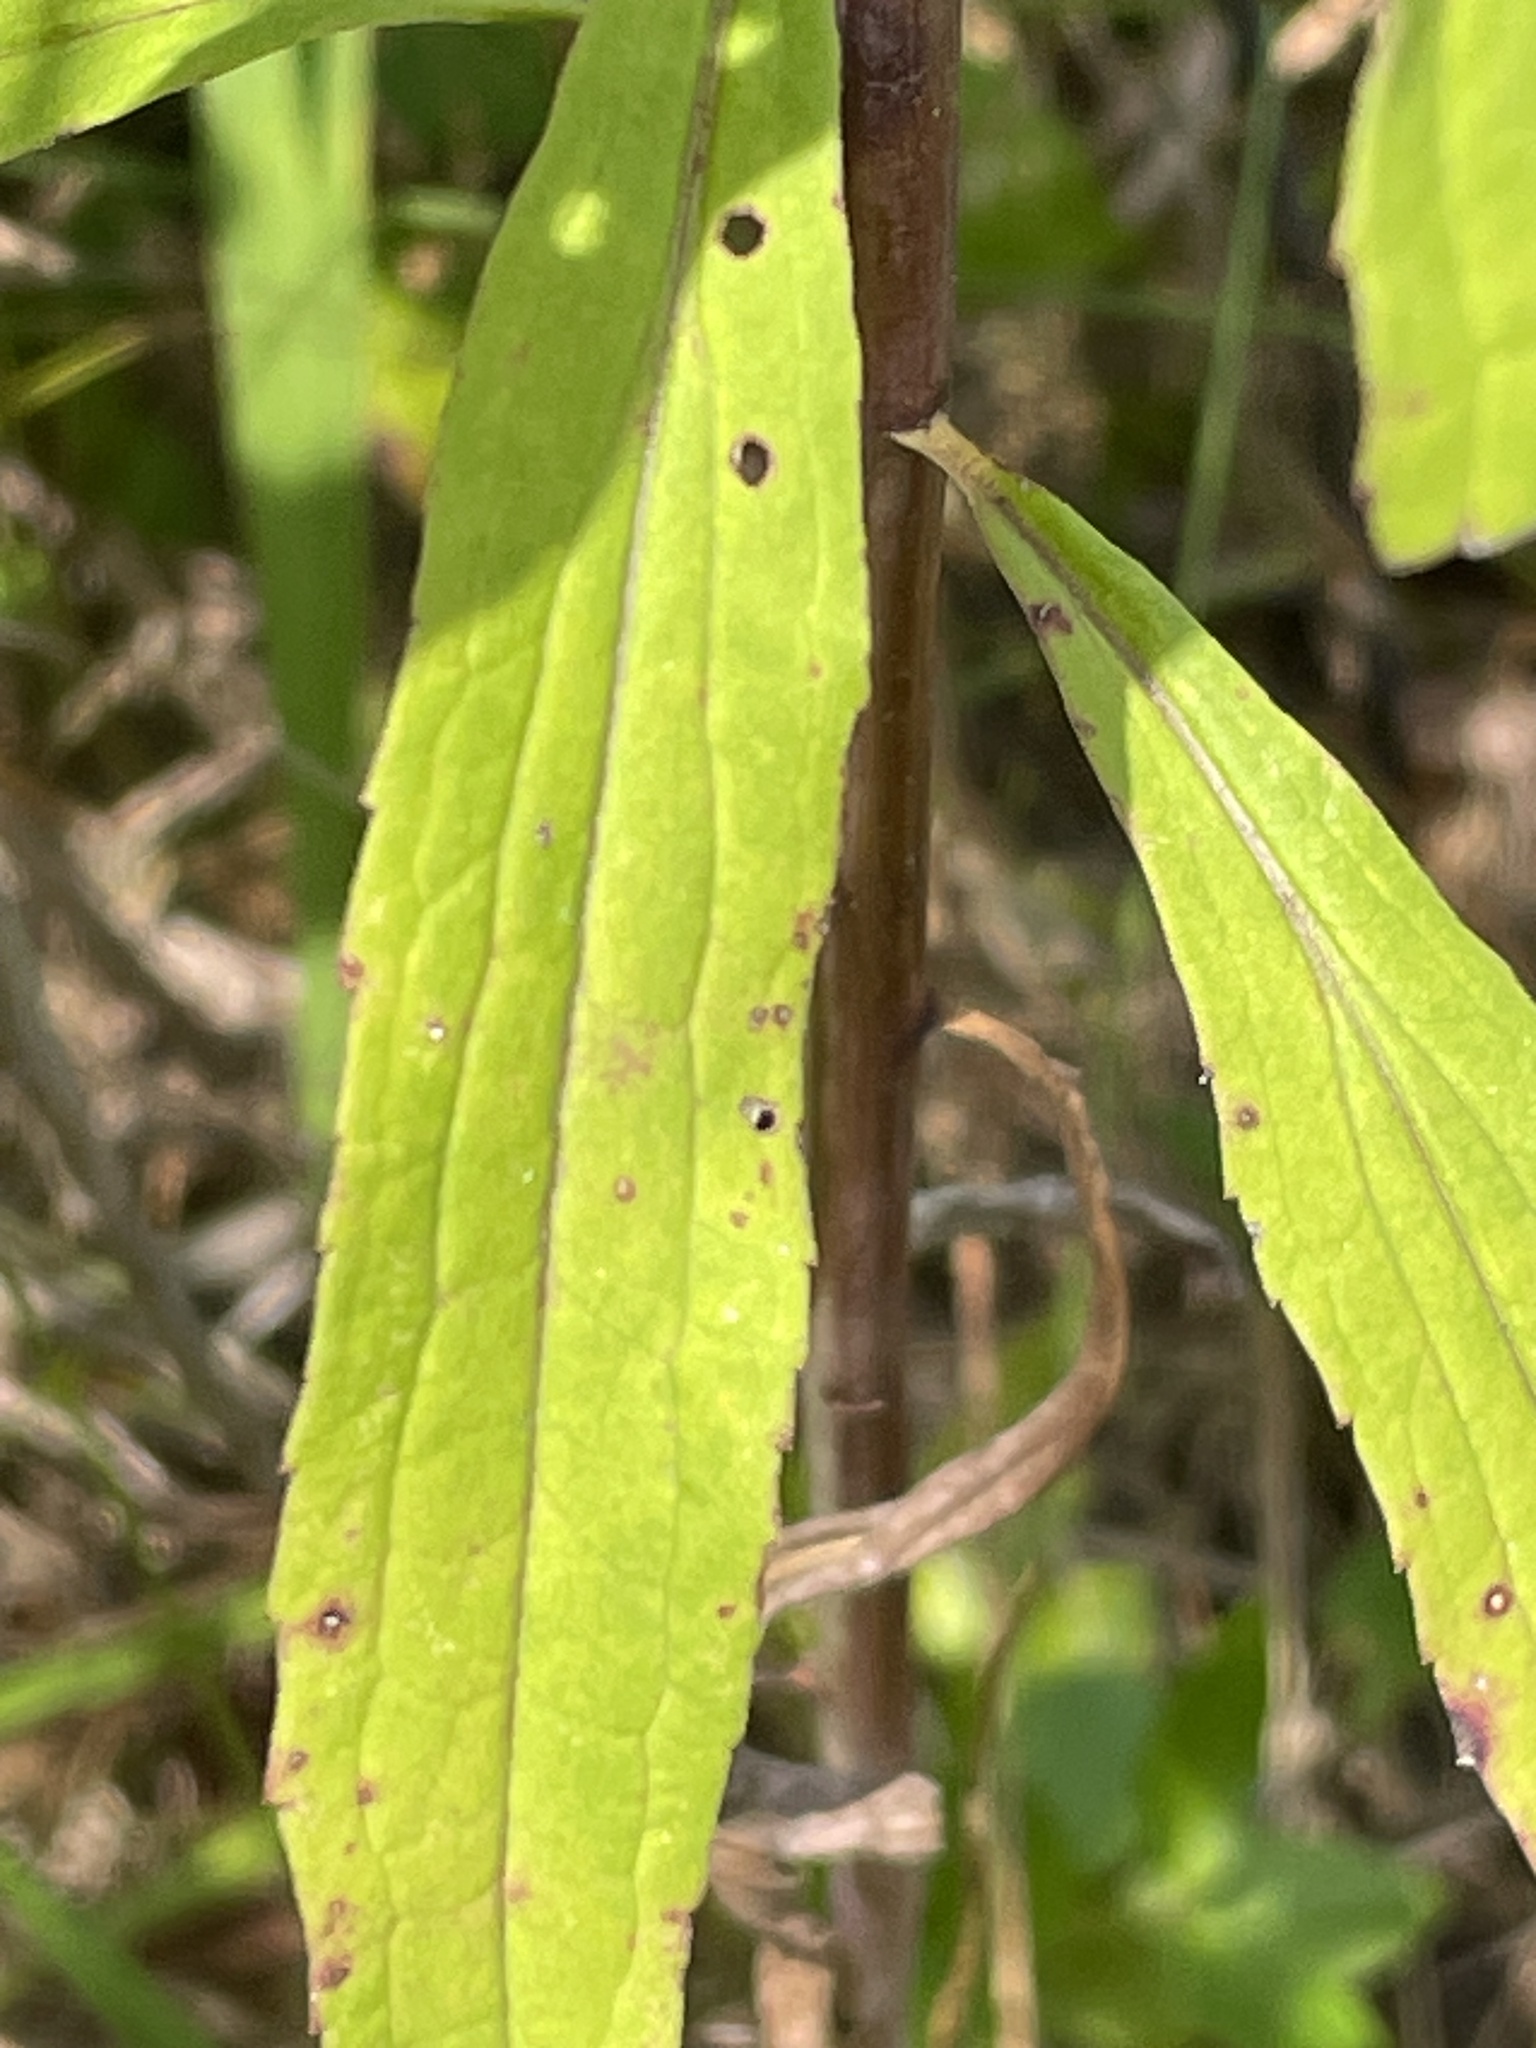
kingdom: Plantae
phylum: Tracheophyta
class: Magnoliopsida
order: Asterales
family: Asteraceae
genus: Solidago
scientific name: Solidago gigantea
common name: Giant goldenrod
